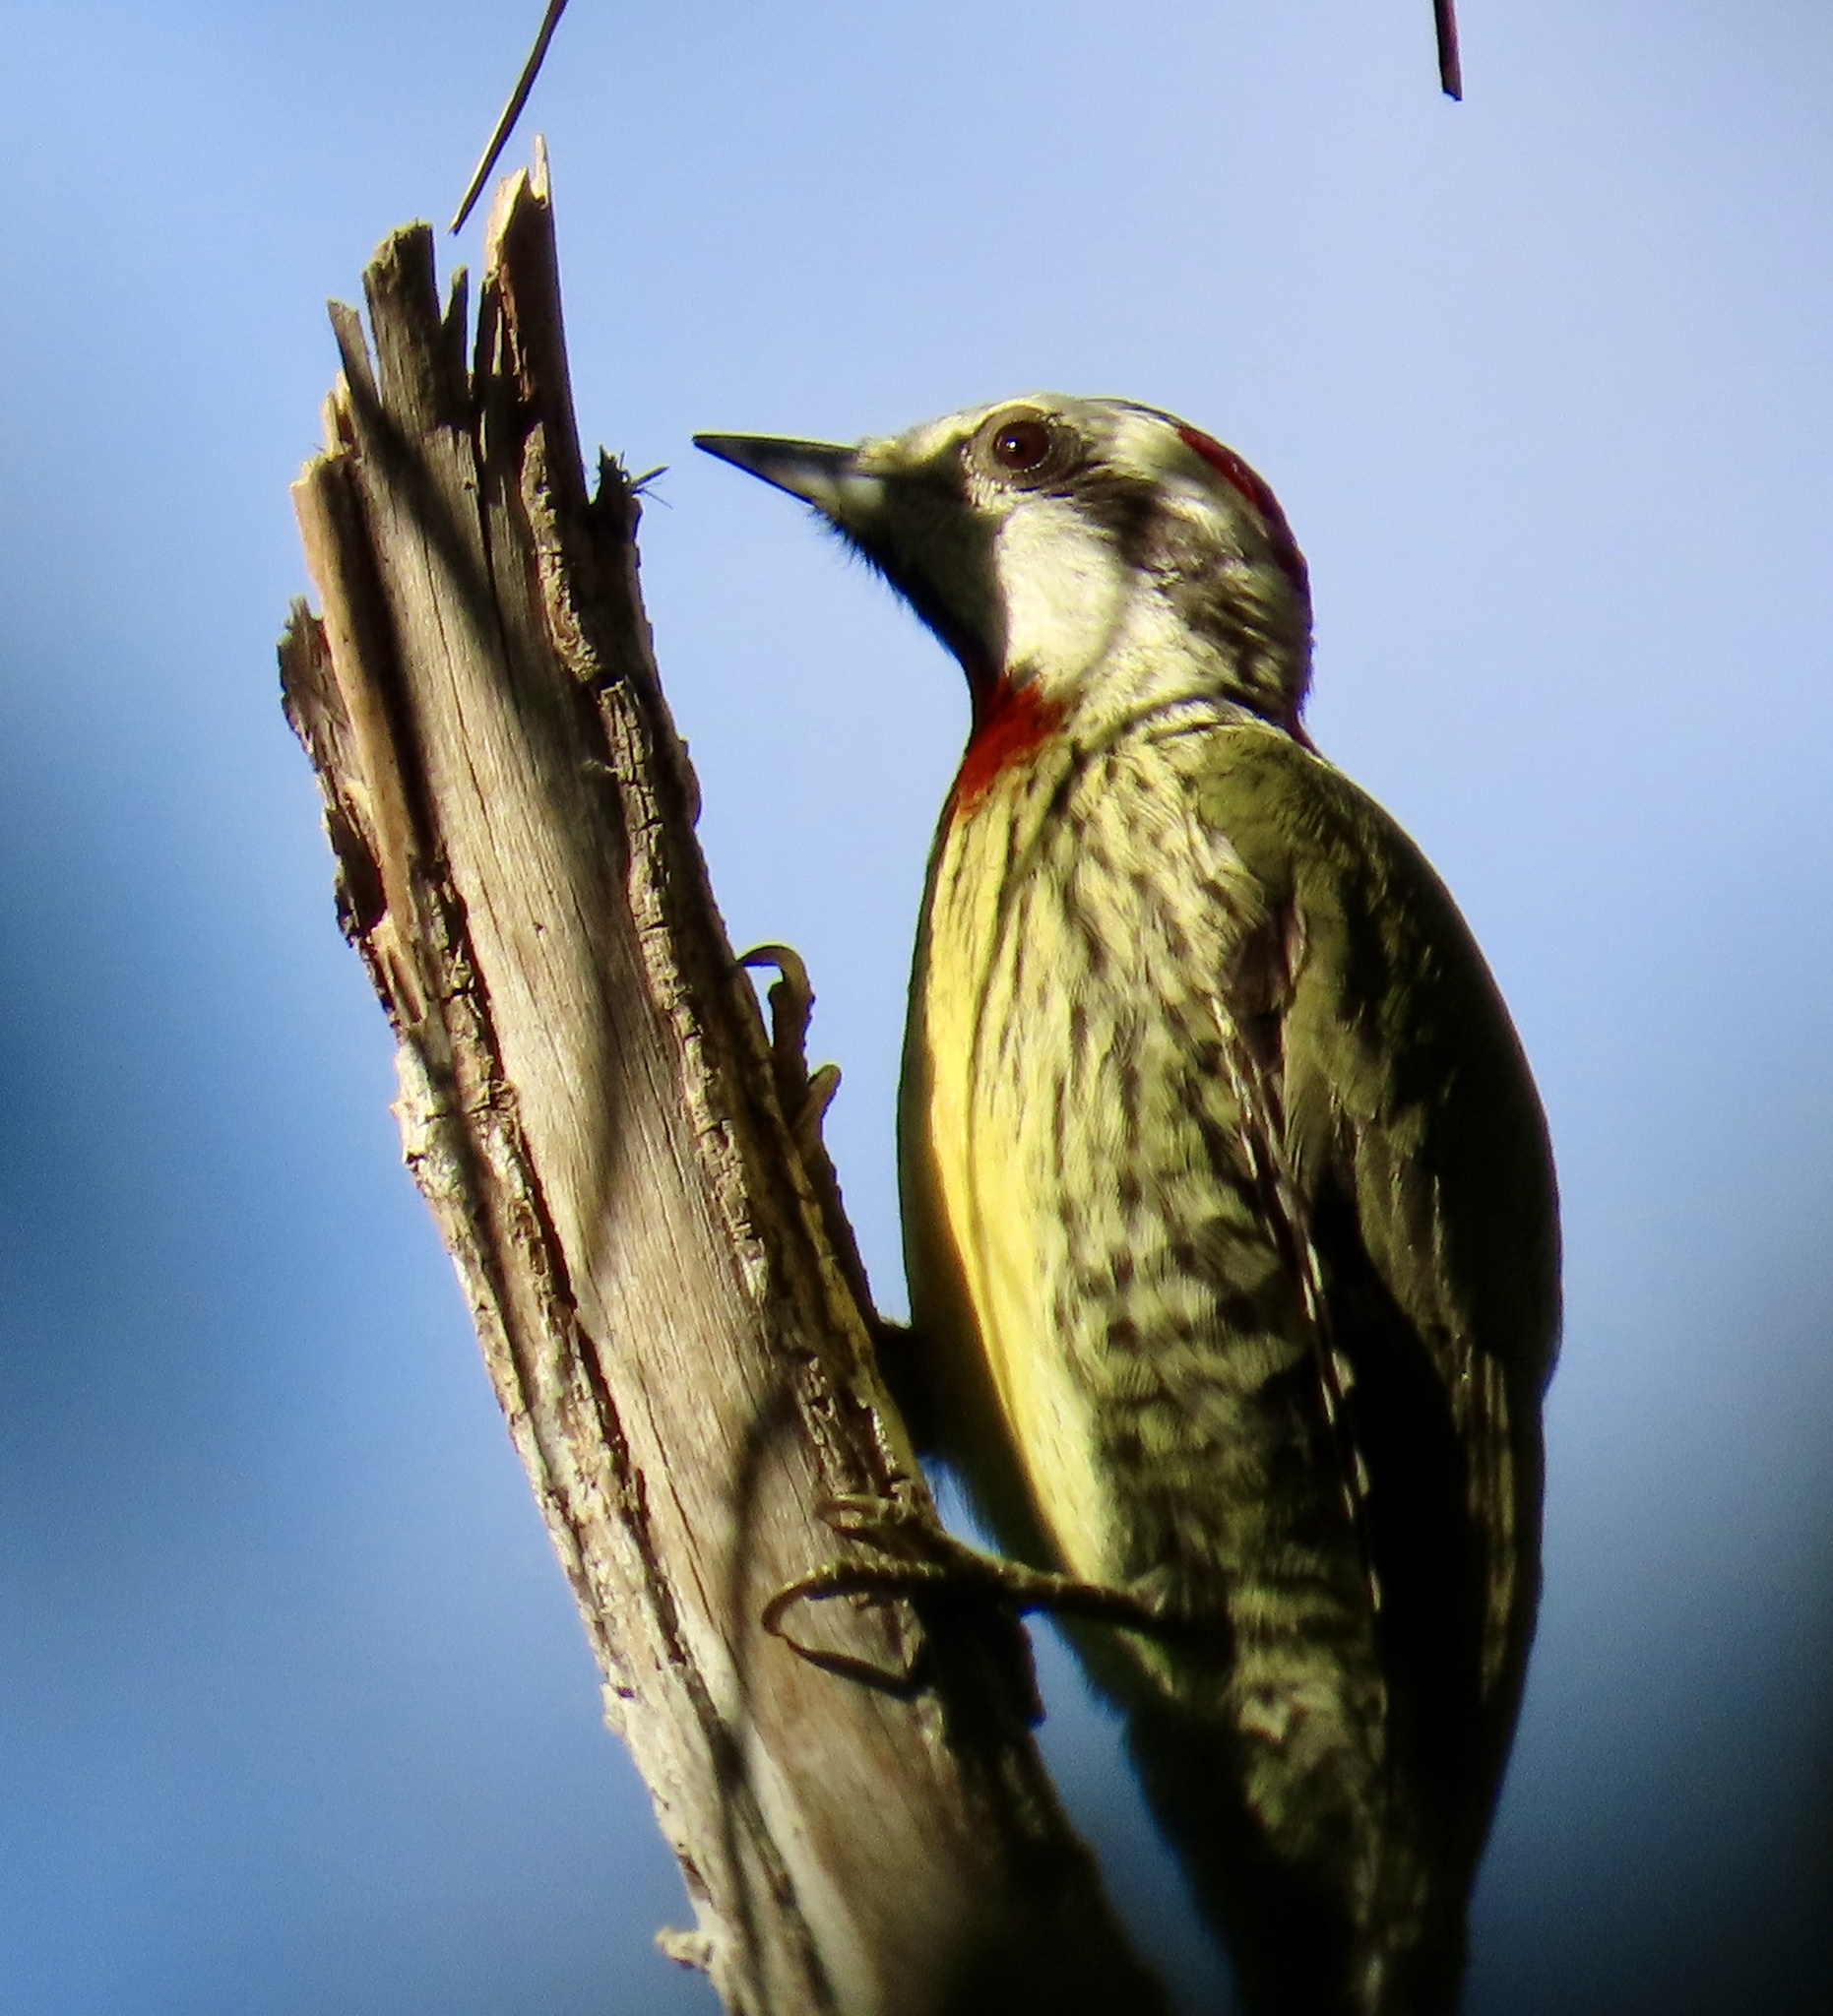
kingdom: Animalia
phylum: Chordata
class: Aves
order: Piciformes
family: Picidae
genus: Xiphidiopicus
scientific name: Xiphidiopicus percussus
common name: Cuban green woodpecker
